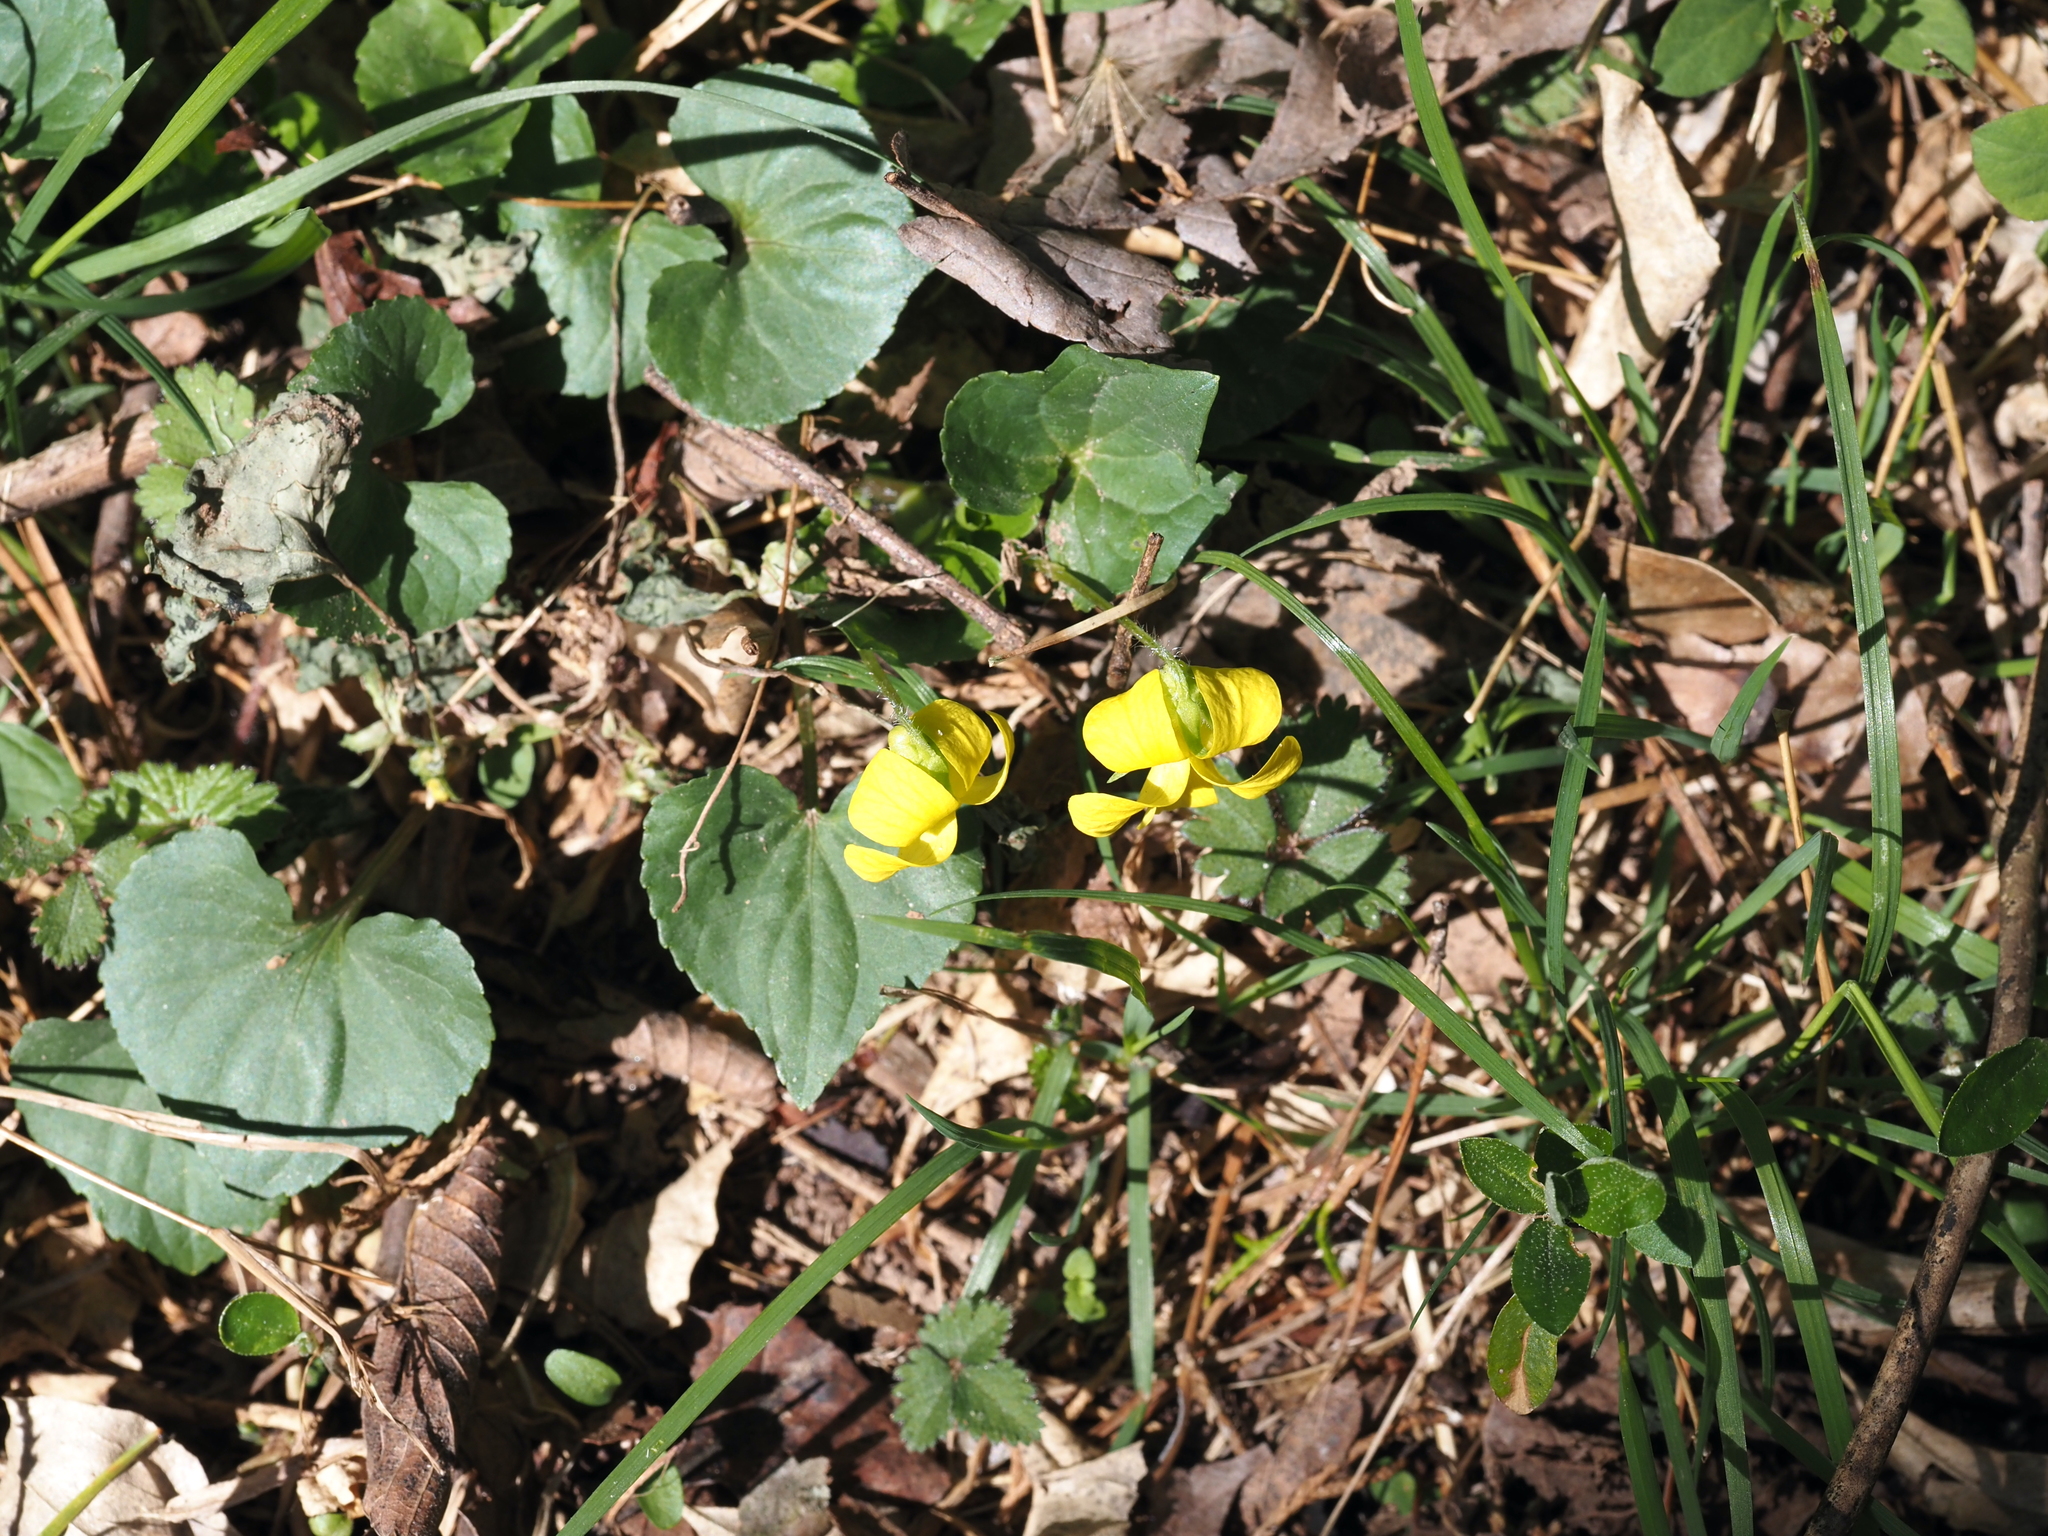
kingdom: Plantae
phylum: Tracheophyta
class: Magnoliopsida
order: Malpighiales
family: Violaceae
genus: Viola
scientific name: Viola eriocarpa
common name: Smooth yellow violet
